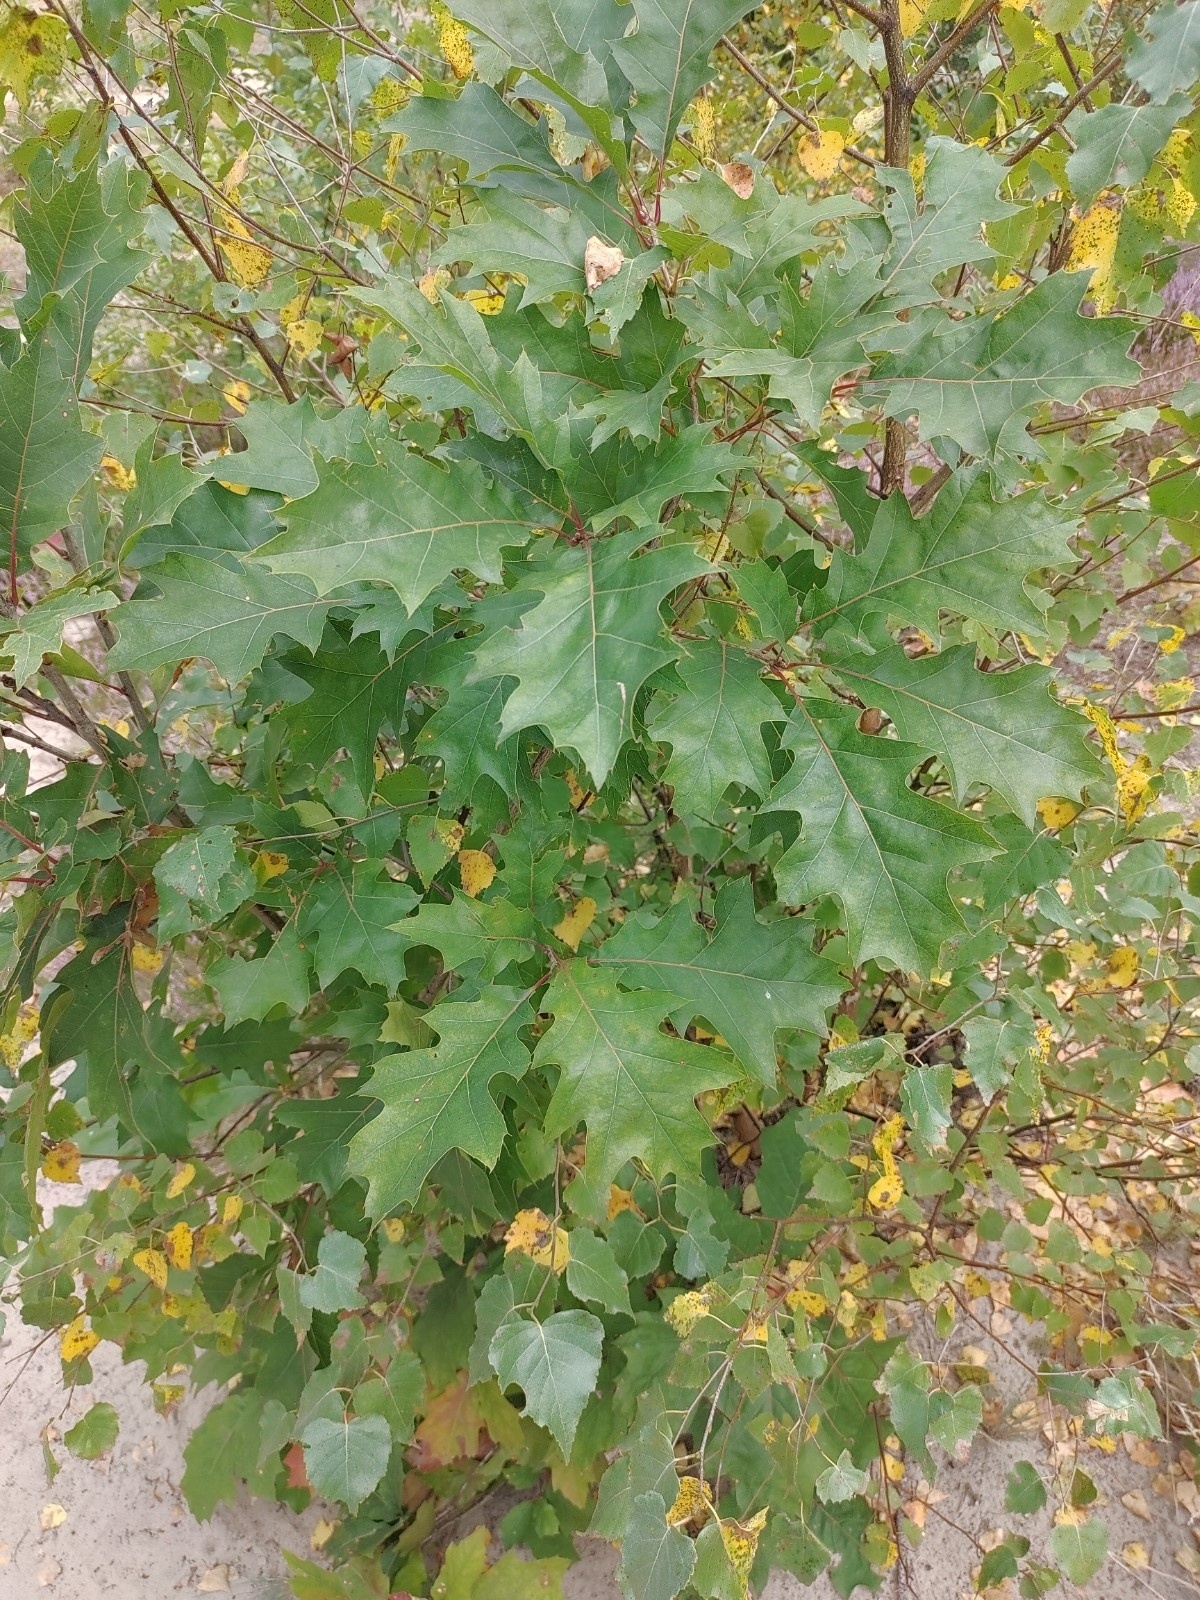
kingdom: Plantae
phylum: Tracheophyta
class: Magnoliopsida
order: Fagales
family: Fagaceae
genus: Quercus
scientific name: Quercus rubra
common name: Red oak
